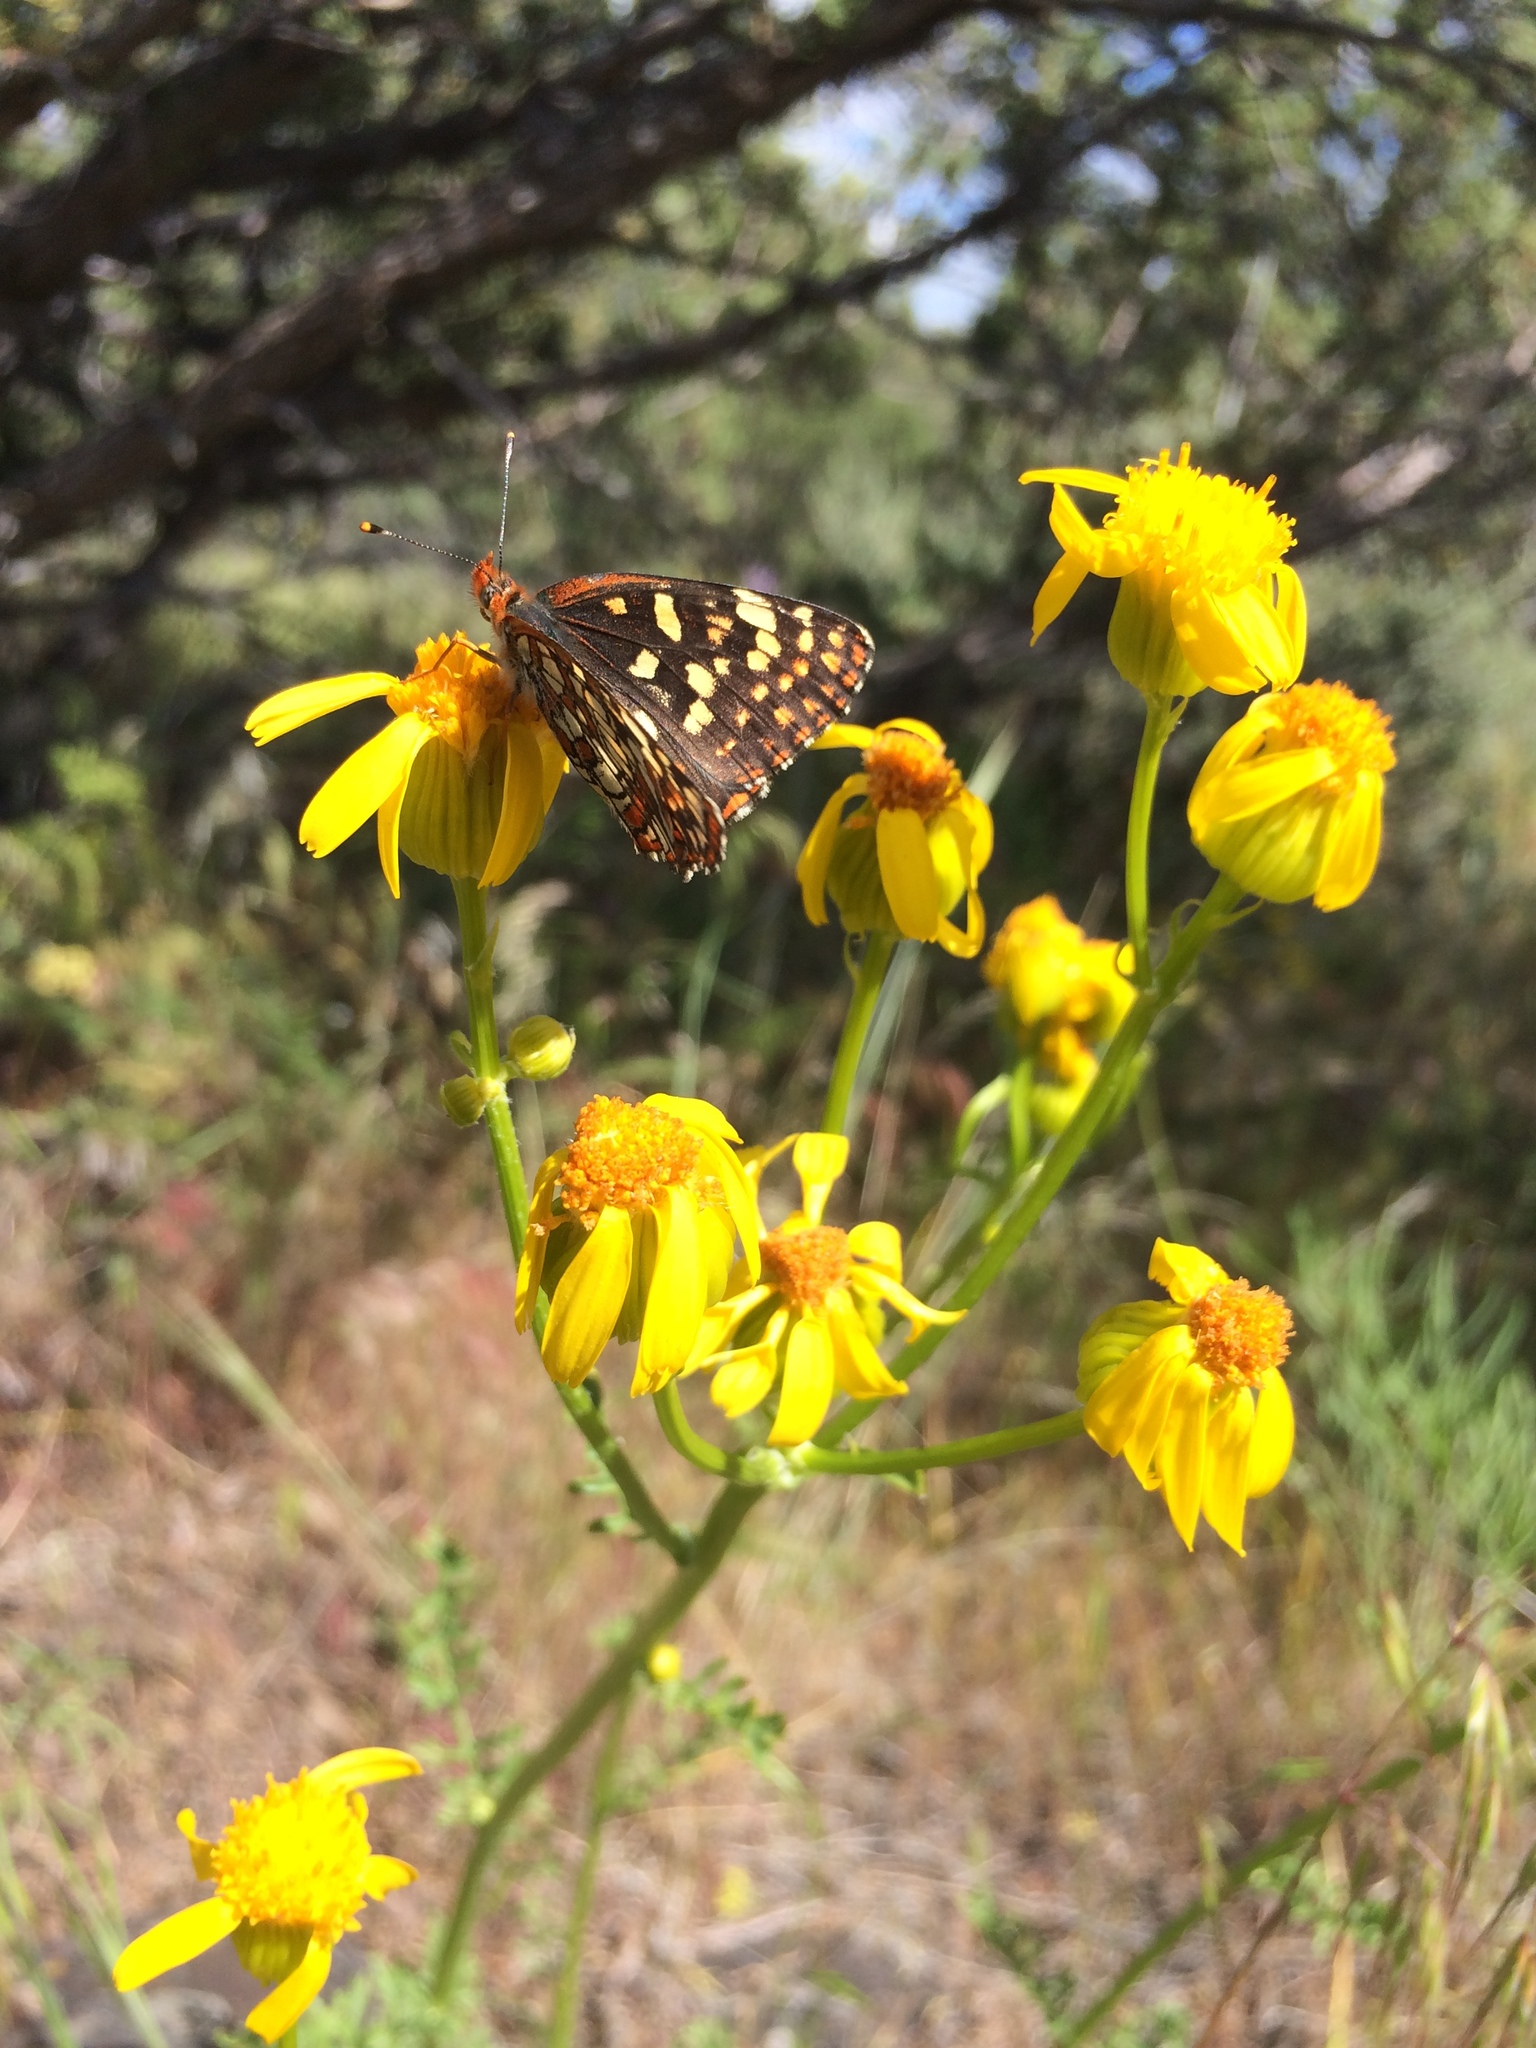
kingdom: Animalia
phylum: Arthropoda
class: Insecta
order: Lepidoptera
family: Nymphalidae
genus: Chlosyne
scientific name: Chlosyne palla
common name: Northern checkerspot
